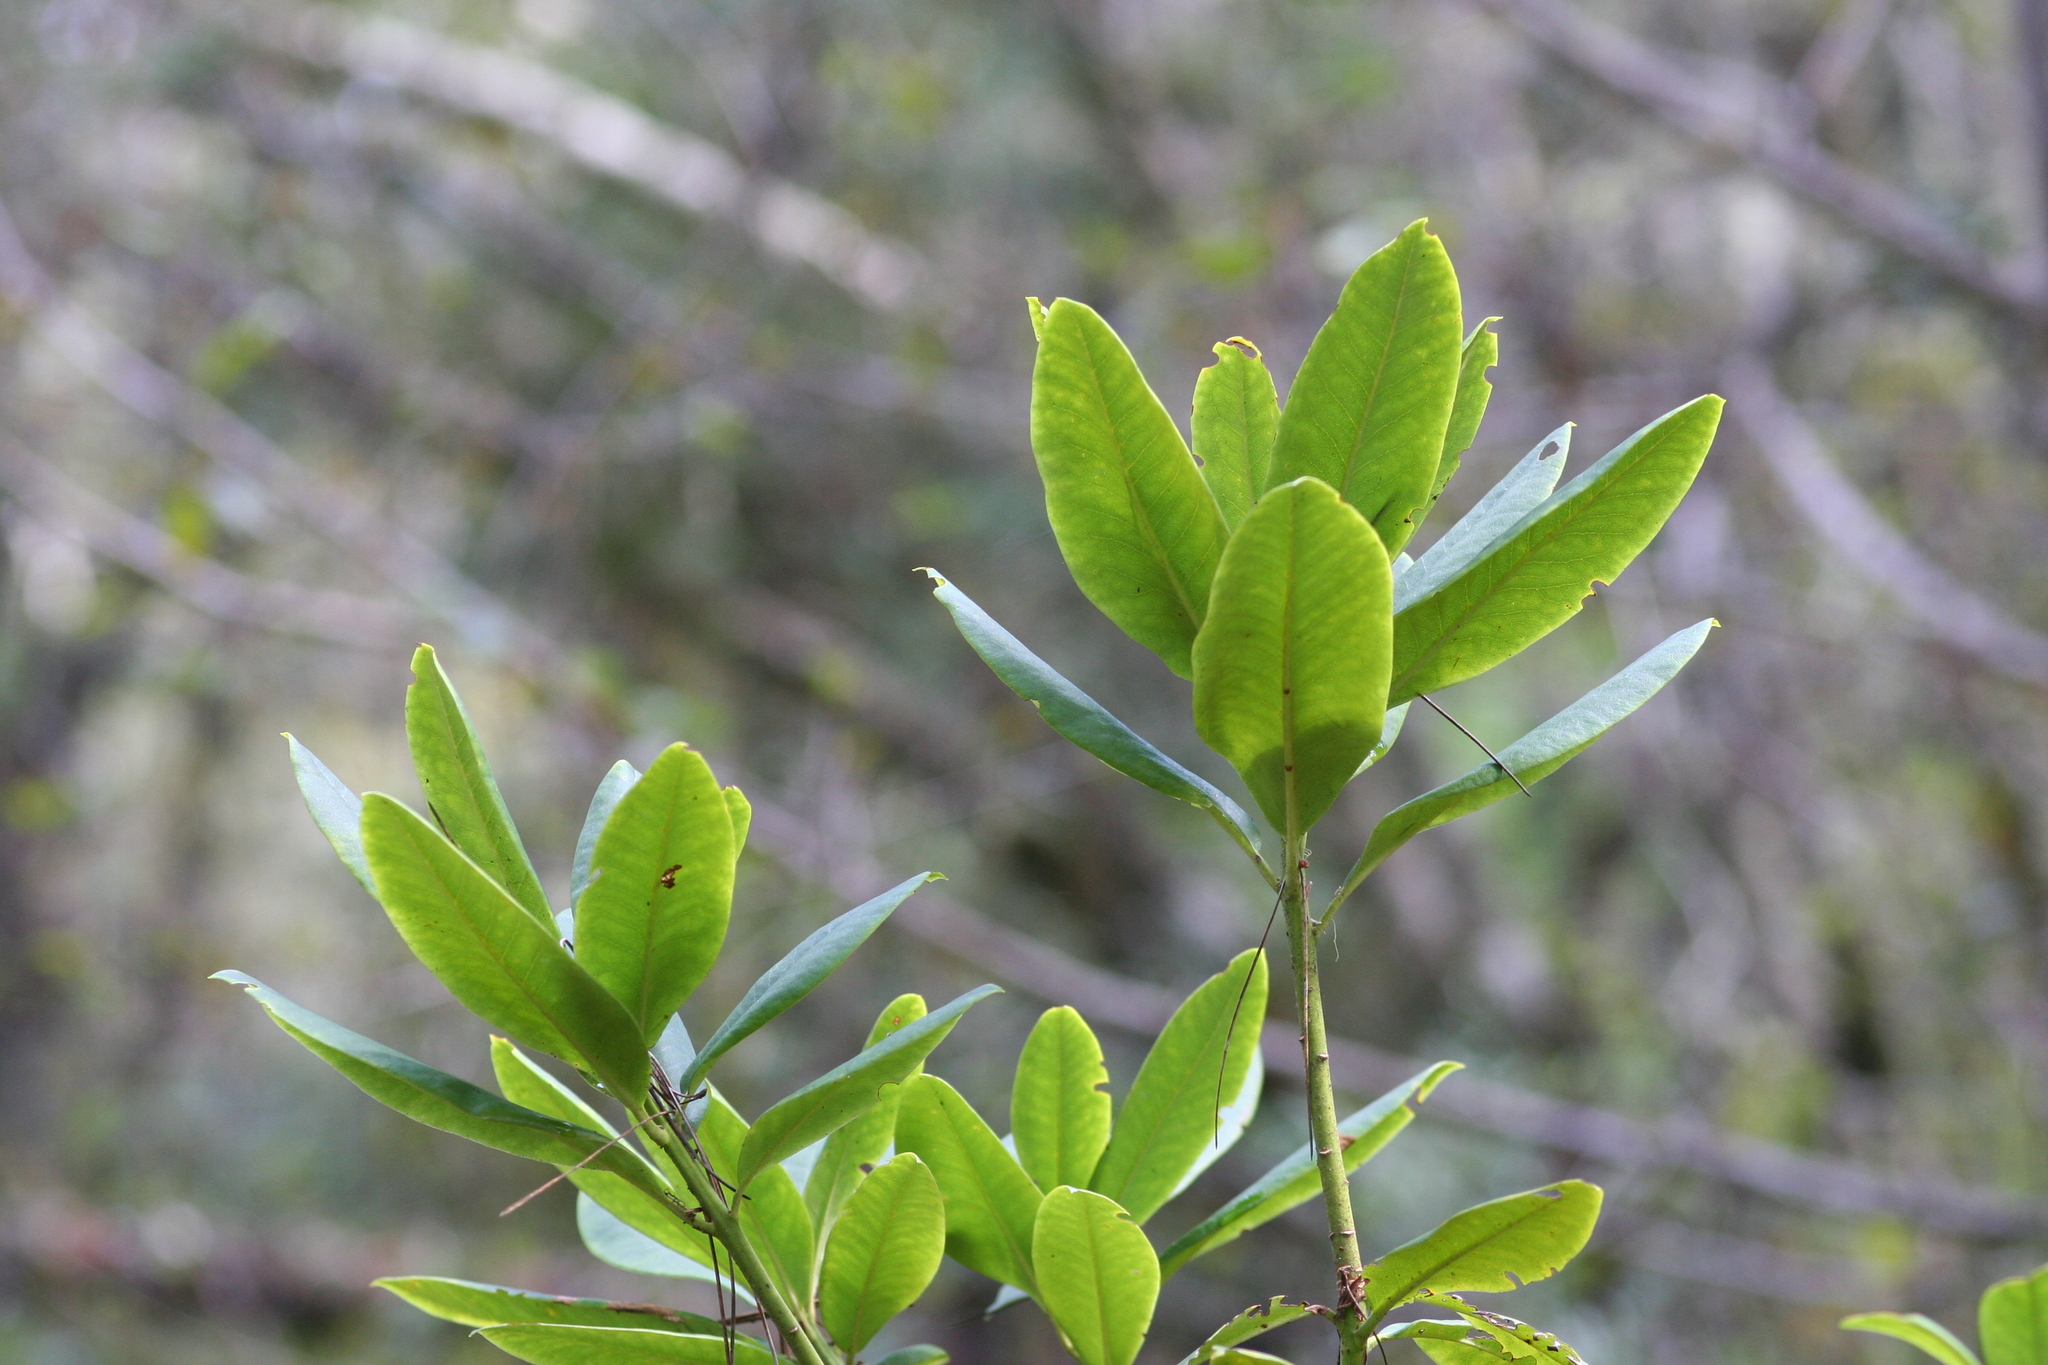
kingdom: Plantae
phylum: Tracheophyta
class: Magnoliopsida
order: Ericales
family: Ericaceae
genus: Rhododendron
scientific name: Rhododendron macrophyllum
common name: California rose bay
